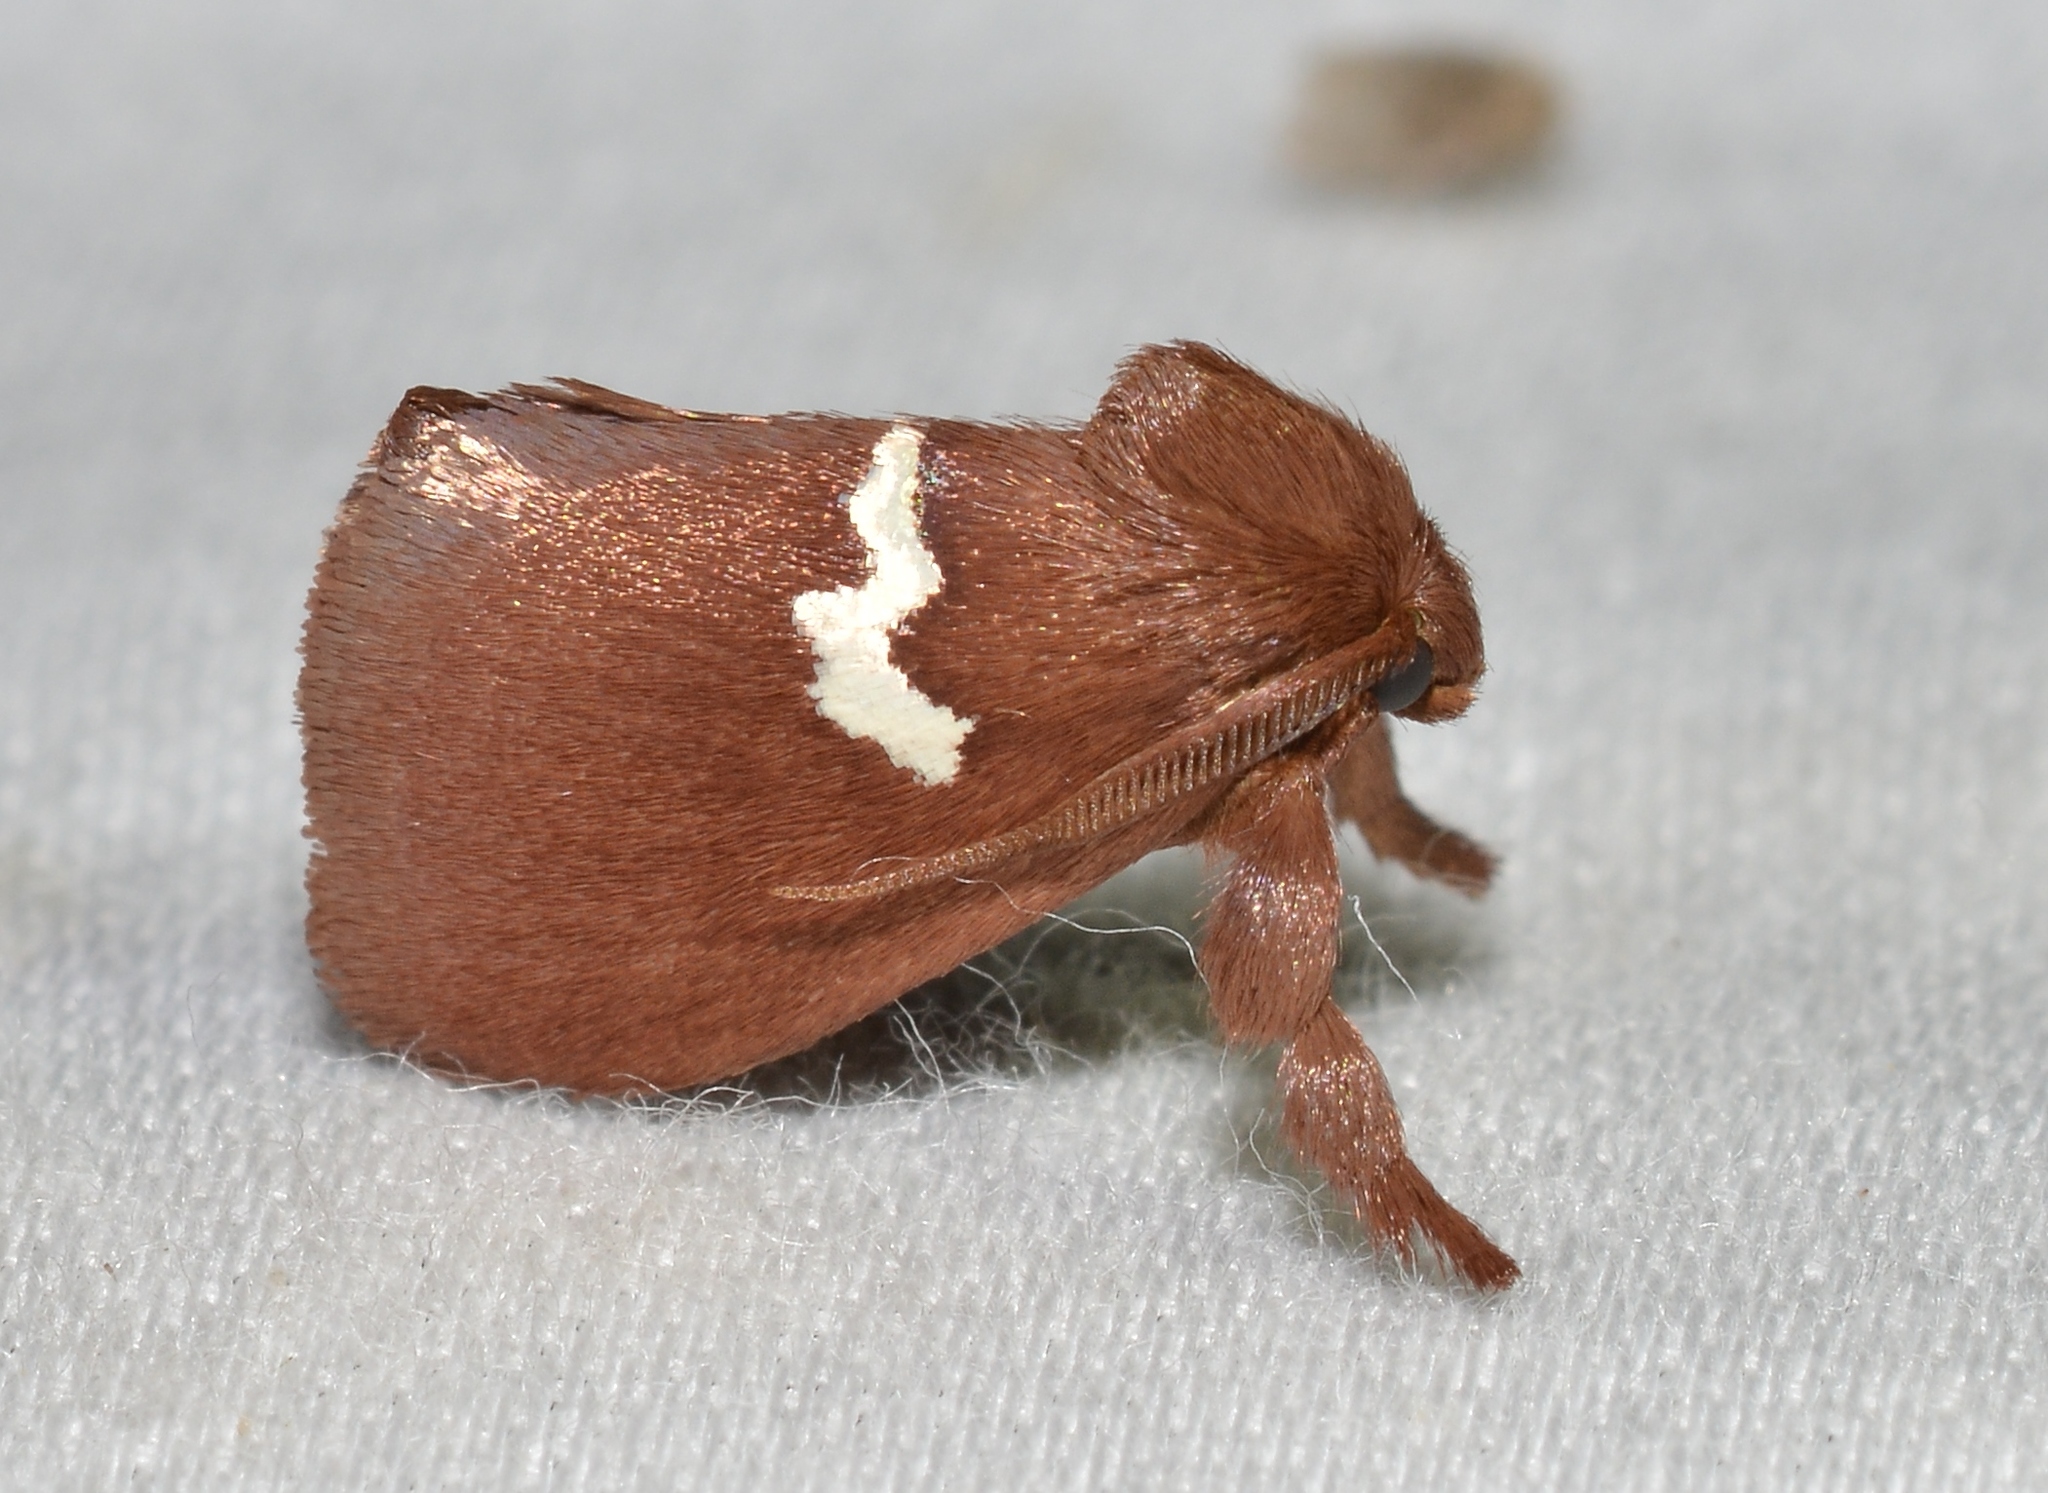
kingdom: Animalia
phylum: Arthropoda
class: Insecta
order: Lepidoptera
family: Limacodidae
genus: Monoleuca
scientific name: Monoleuca semifascia
